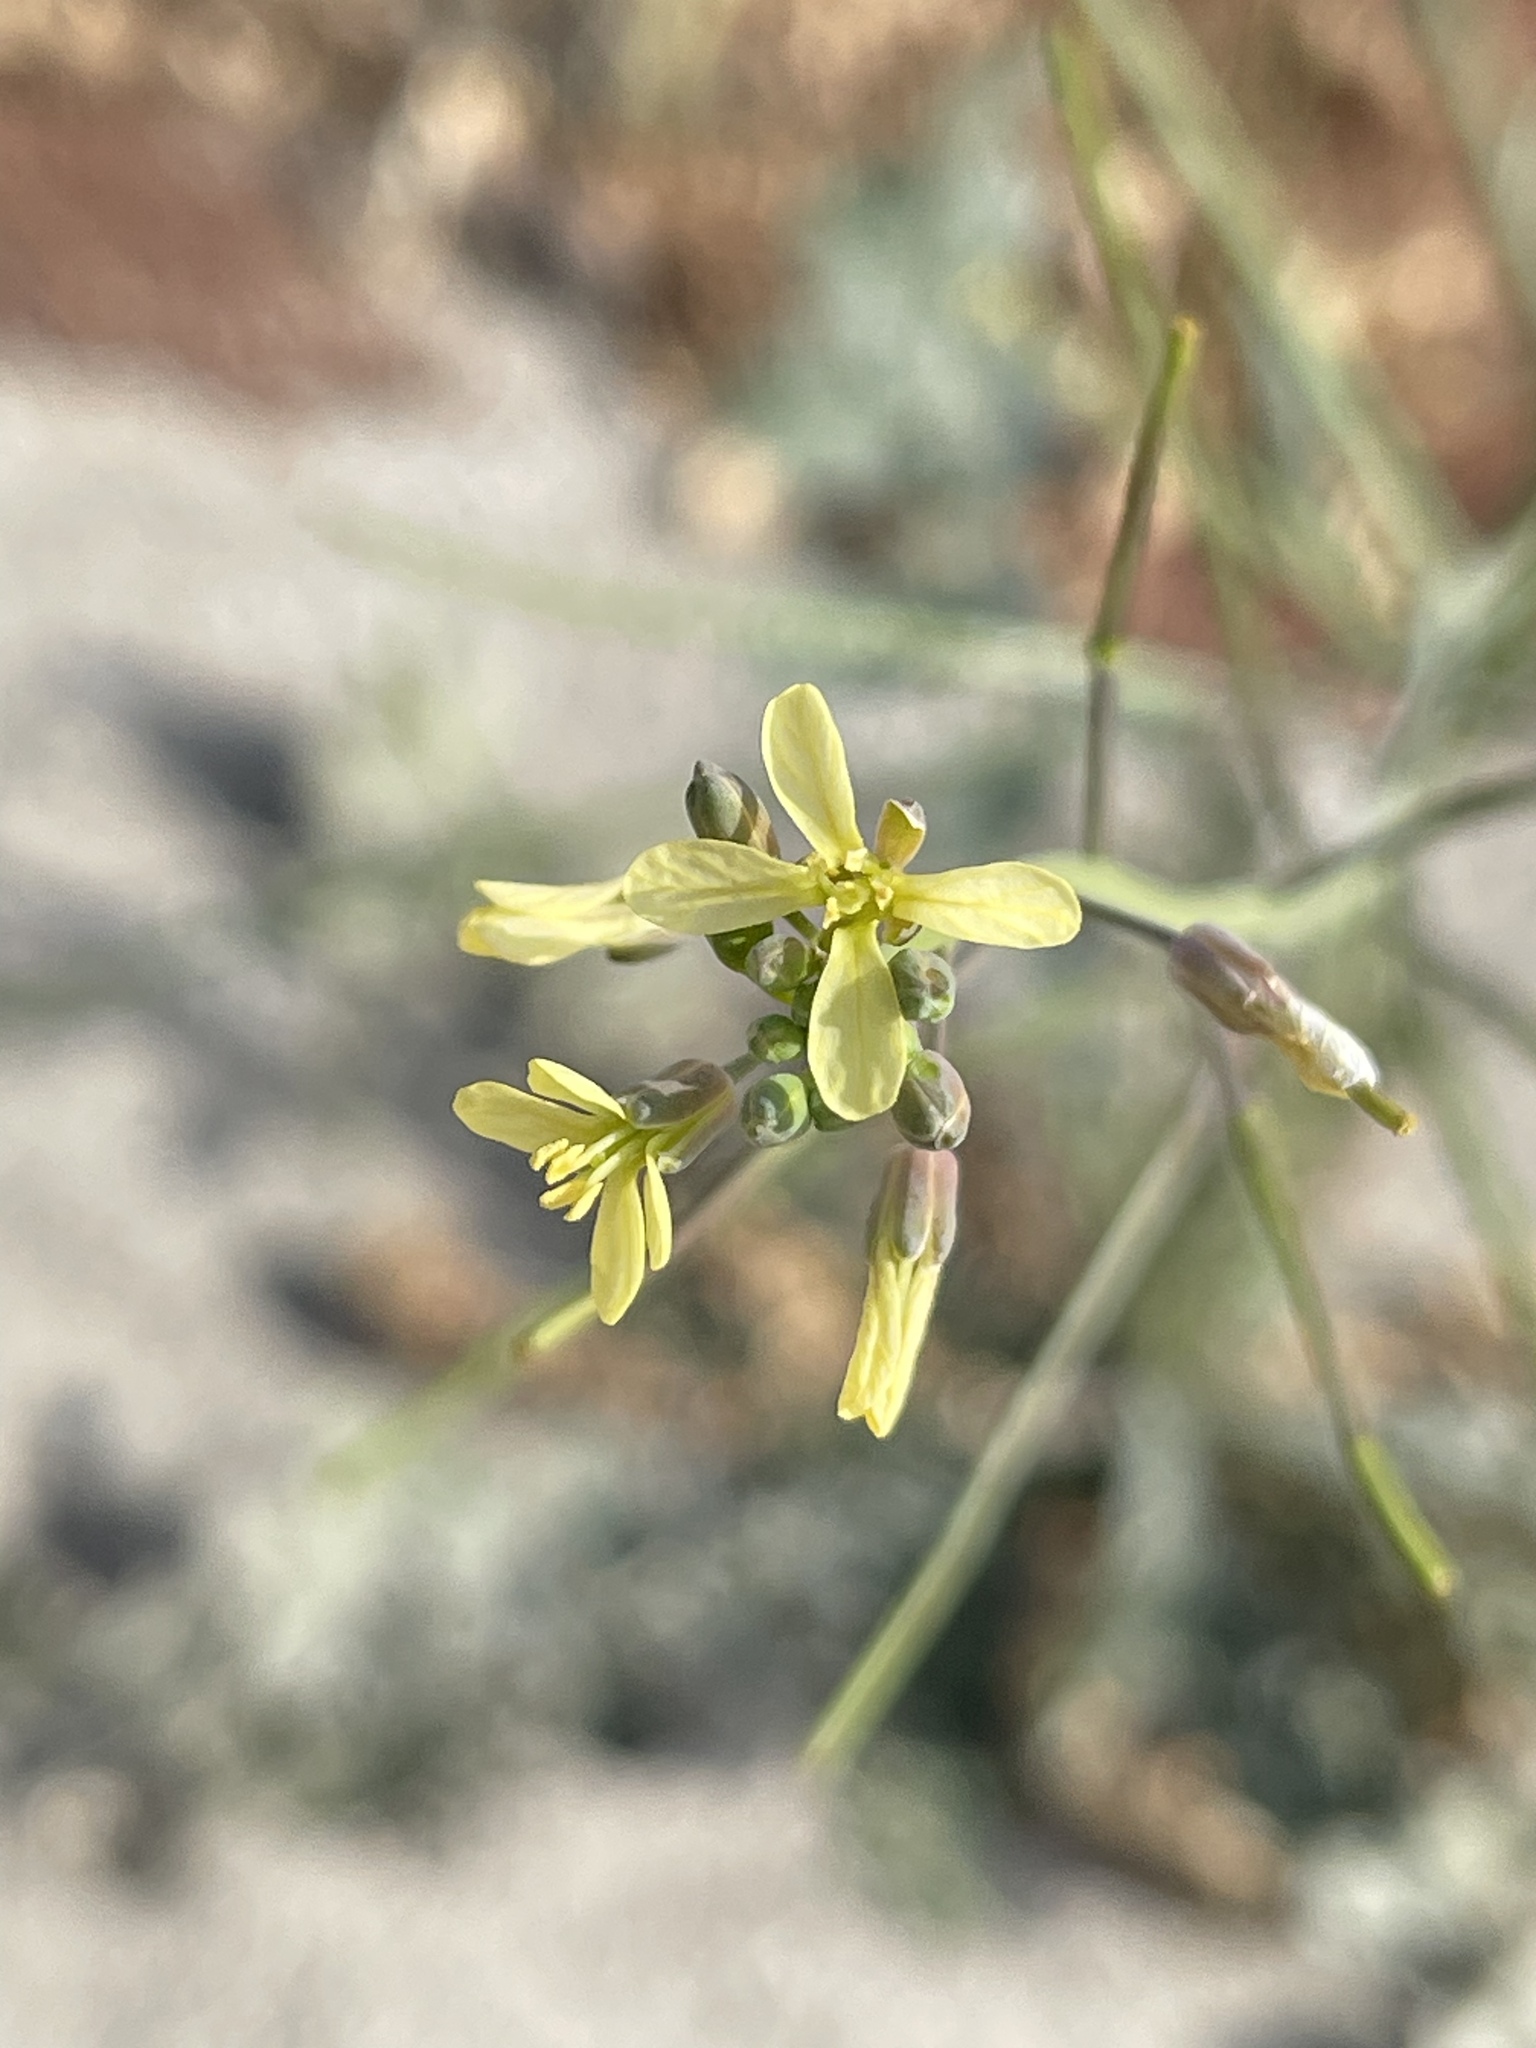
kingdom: Plantae
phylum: Tracheophyta
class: Magnoliopsida
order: Brassicales
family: Brassicaceae
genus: Brassica
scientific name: Brassica tournefortii
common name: Pale cabbage
